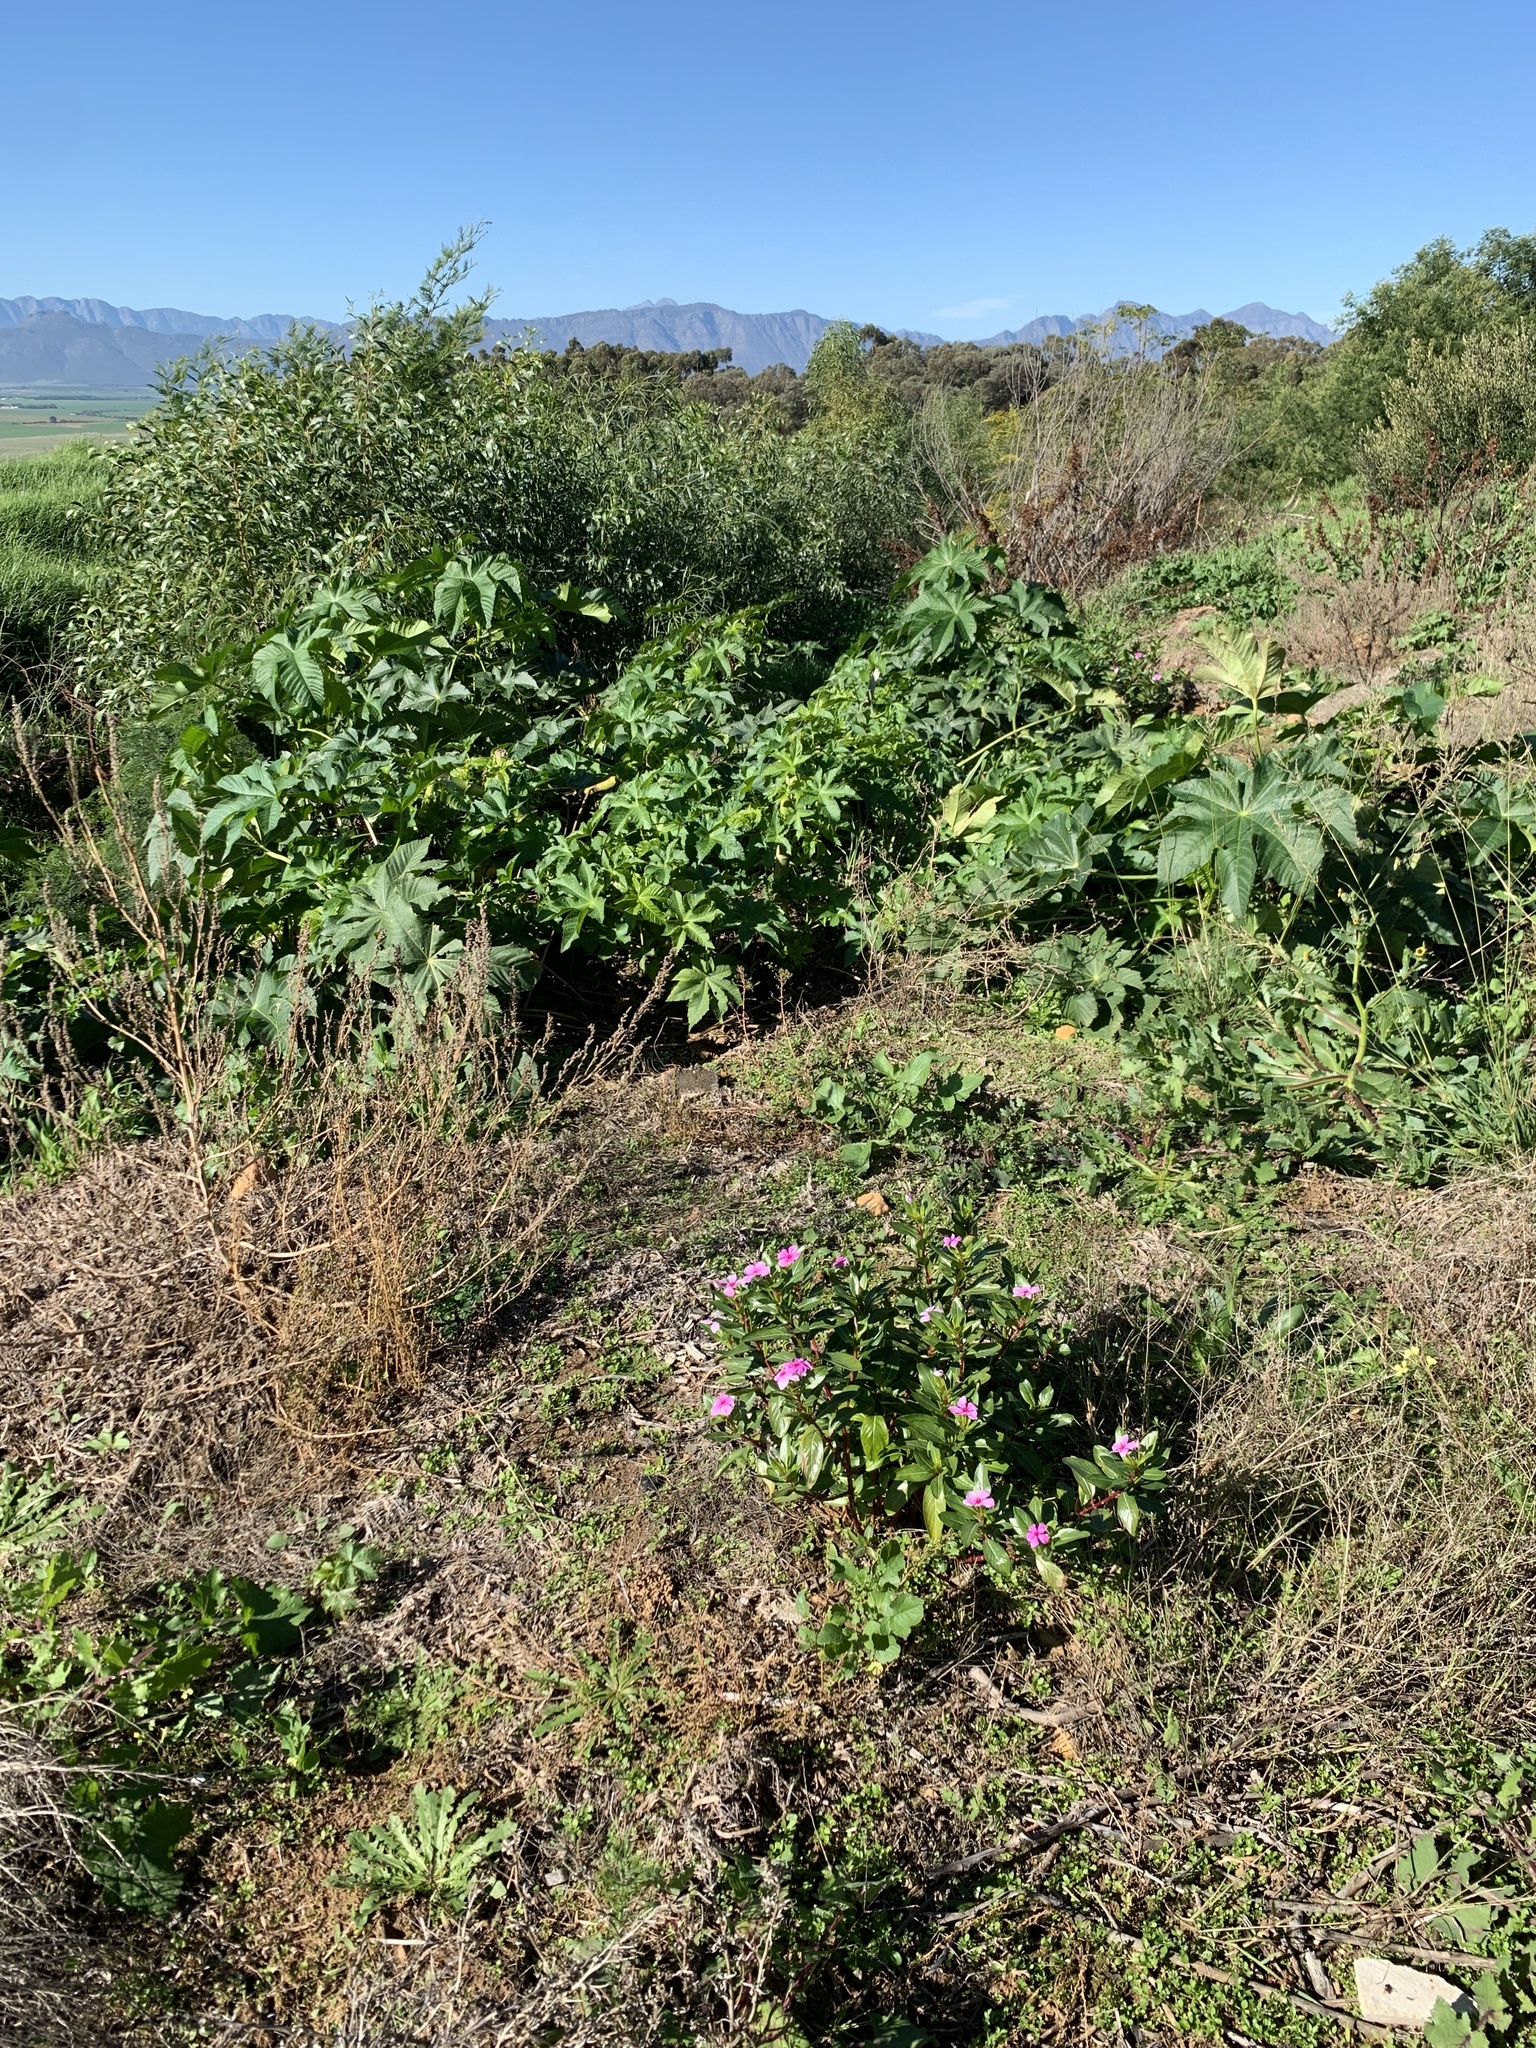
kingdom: Plantae
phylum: Tracheophyta
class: Magnoliopsida
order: Gentianales
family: Apocynaceae
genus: Catharanthus
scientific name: Catharanthus roseus
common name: Madagascar periwinkle
